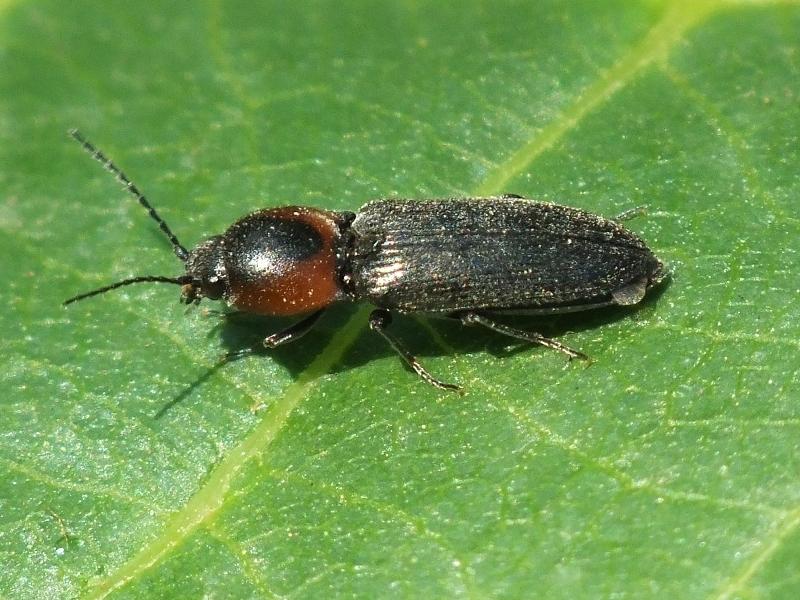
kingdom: Animalia
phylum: Arthropoda
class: Insecta
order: Coleoptera
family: Elateridae
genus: Cardiophorus
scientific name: Cardiophorus discicollis
